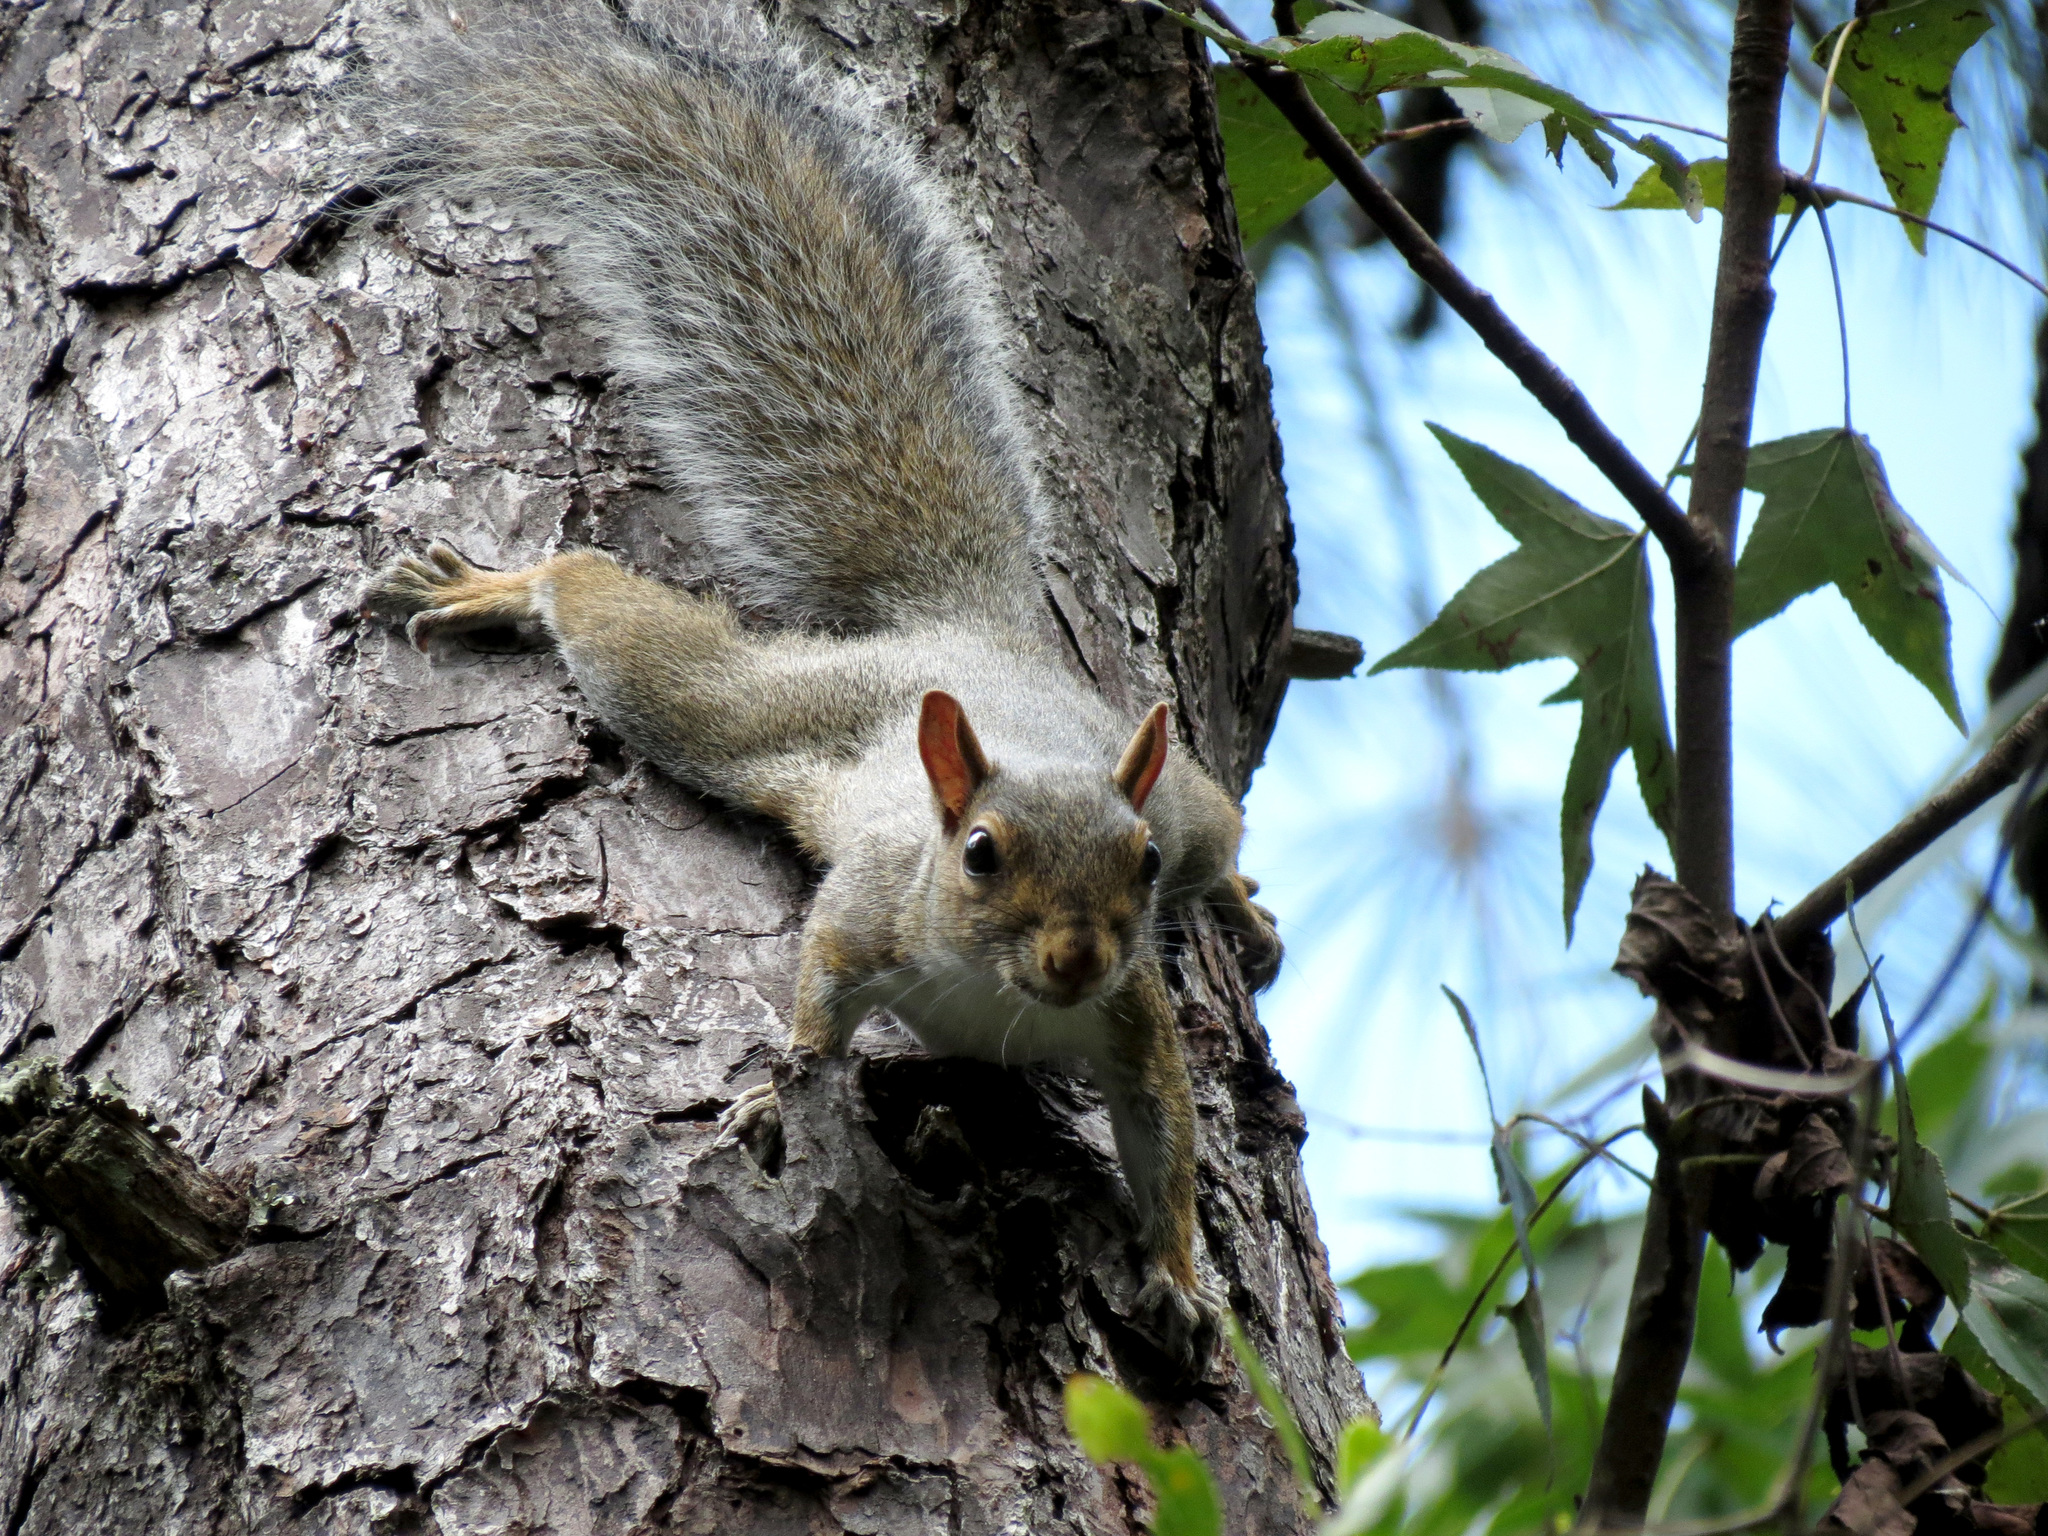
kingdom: Animalia
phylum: Chordata
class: Mammalia
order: Rodentia
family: Sciuridae
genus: Sciurus
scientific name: Sciurus carolinensis
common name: Eastern gray squirrel
